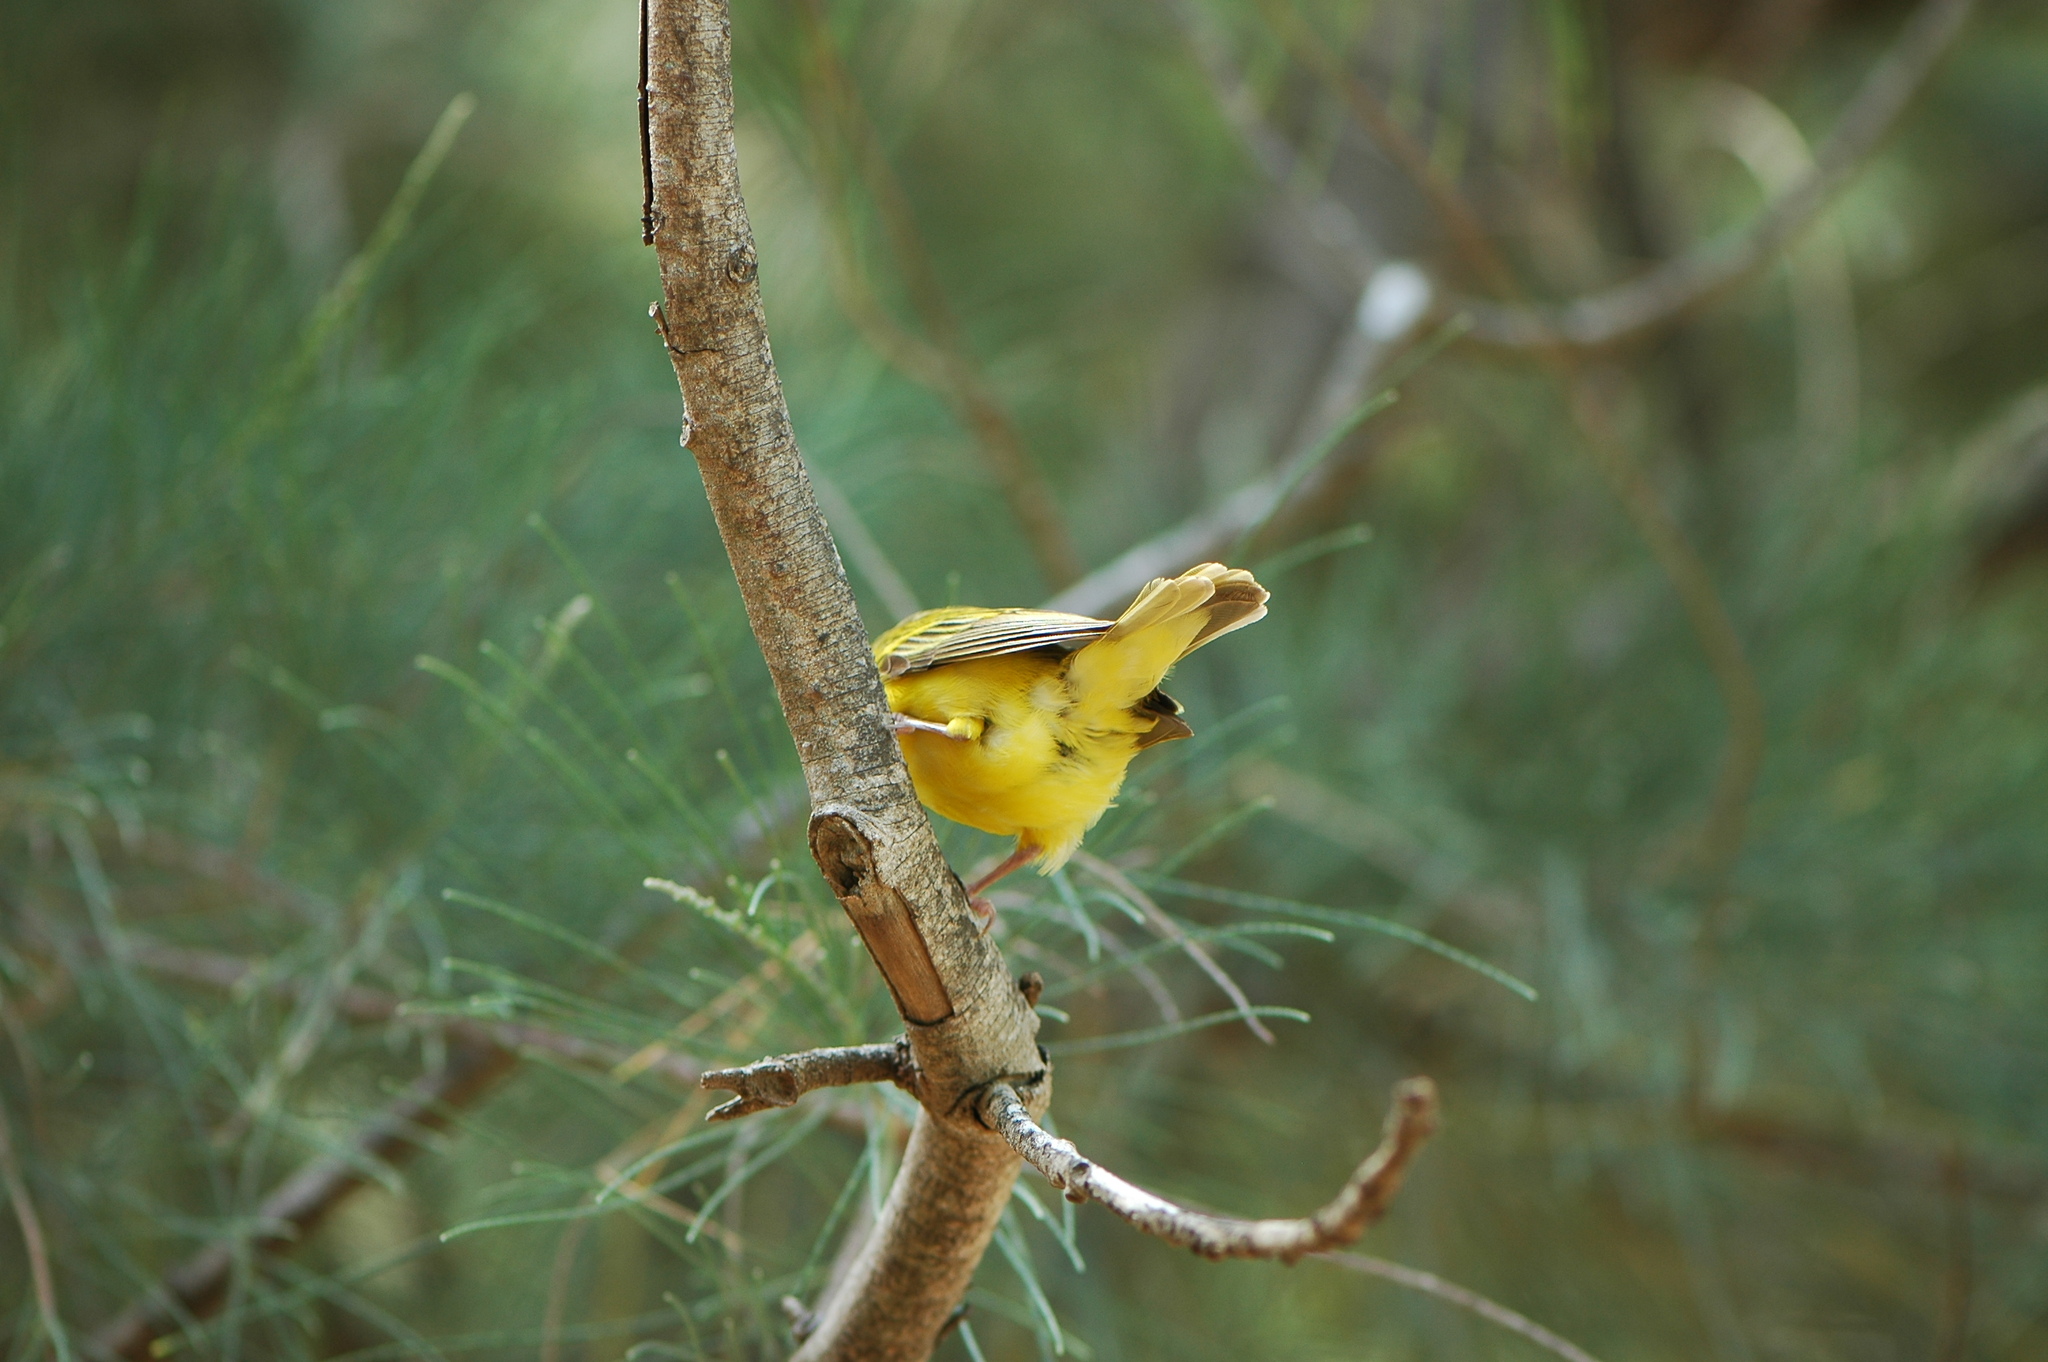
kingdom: Animalia
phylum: Chordata
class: Aves
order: Passeriformes
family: Ploceidae
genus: Ploceus
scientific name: Ploceus melanocephalus
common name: Black-headed weaver
